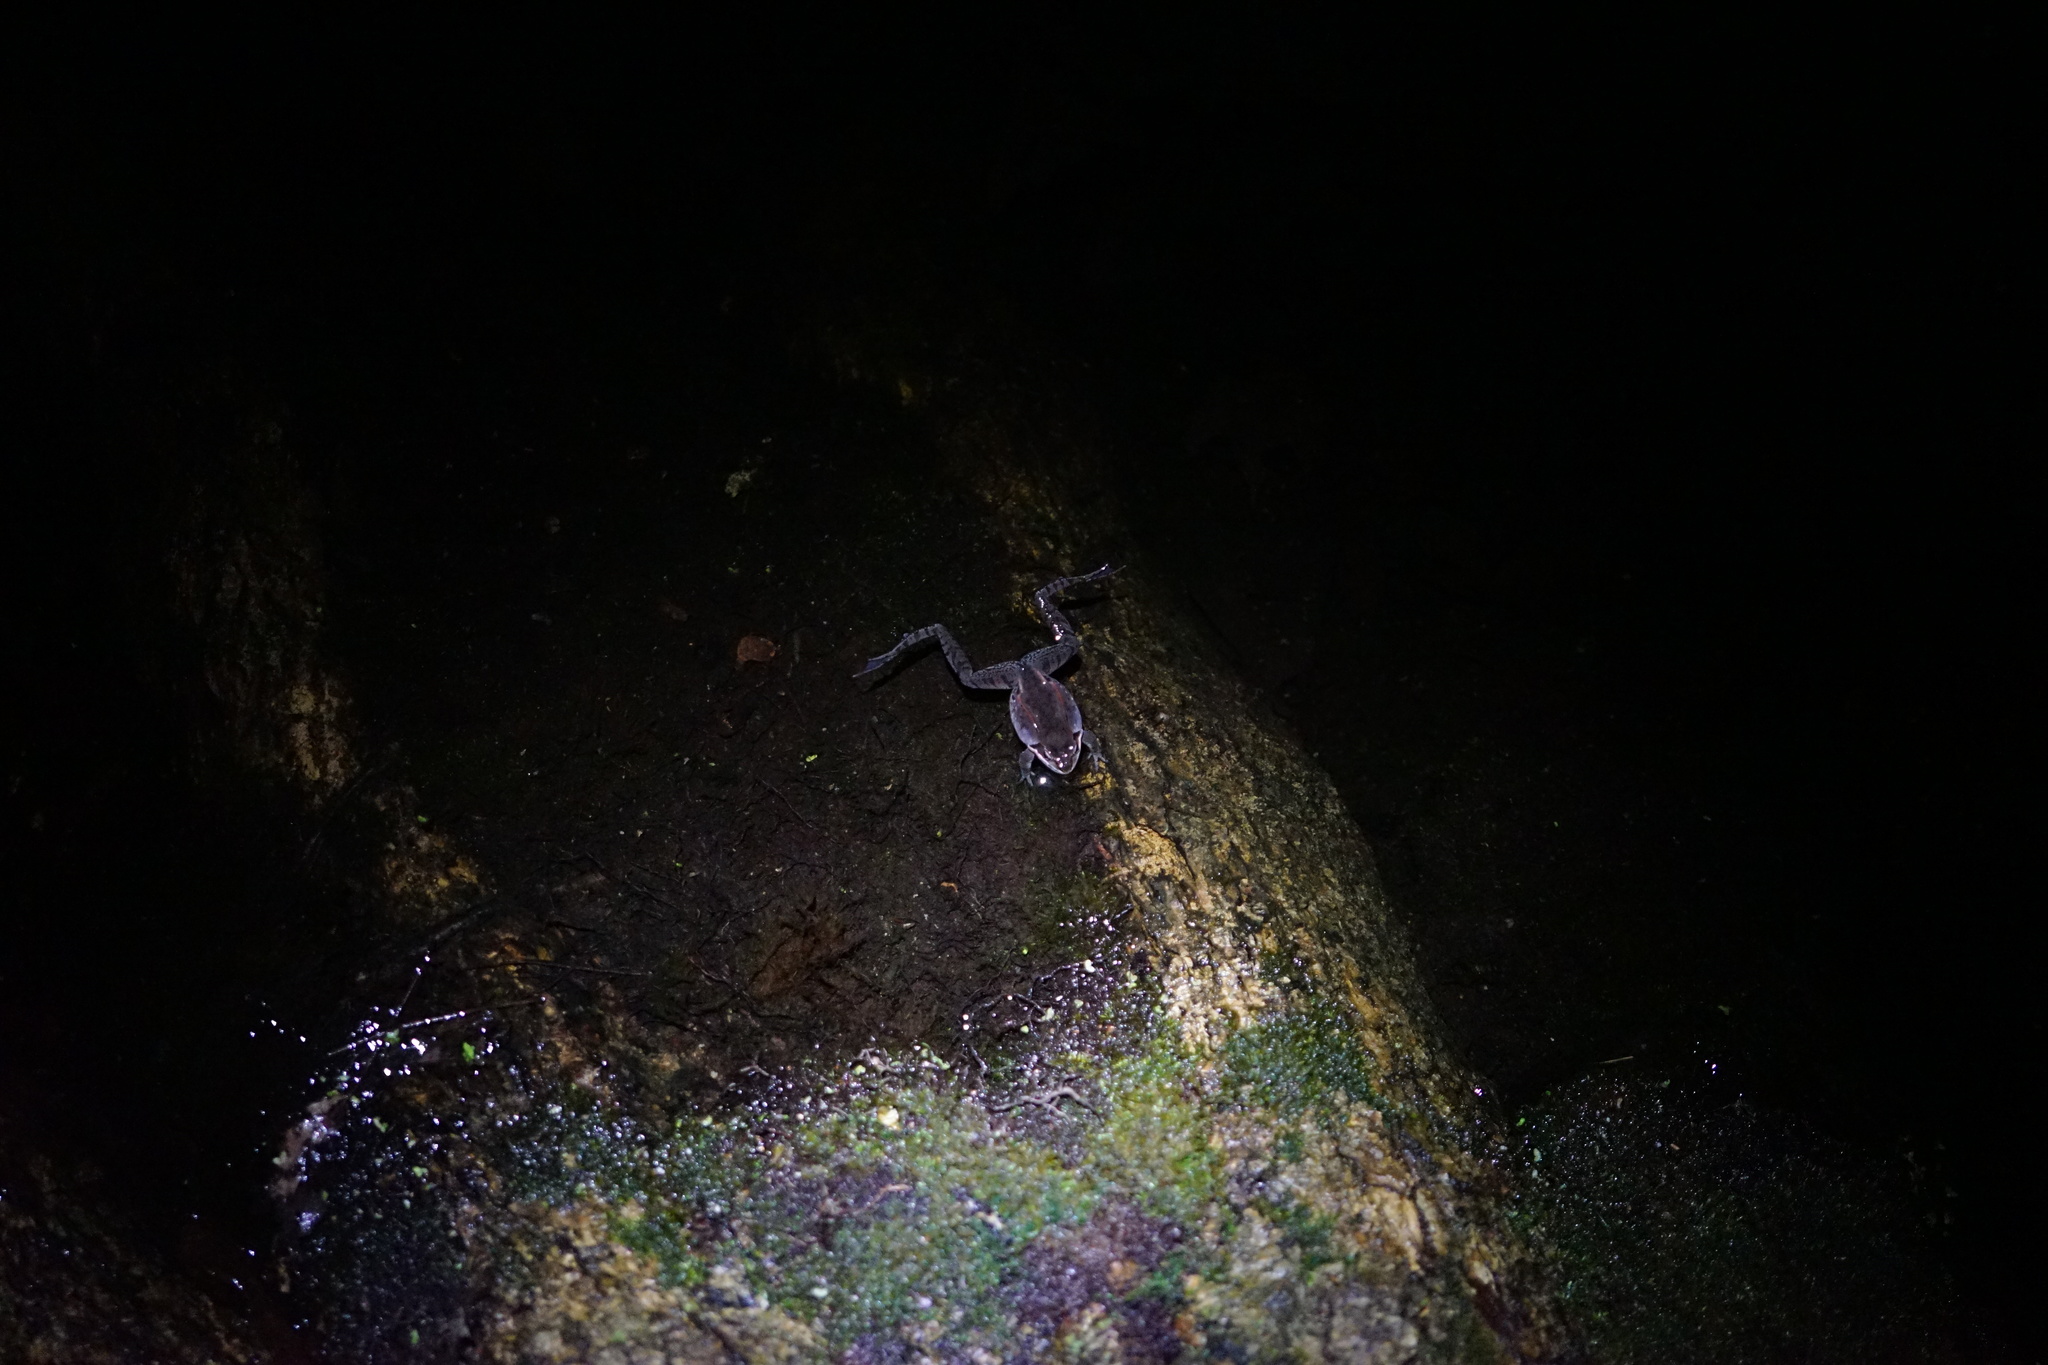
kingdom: Animalia
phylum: Chordata
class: Amphibia
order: Anura
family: Ranidae
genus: Lithobates
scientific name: Lithobates sylvaticus
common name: Wood frog
